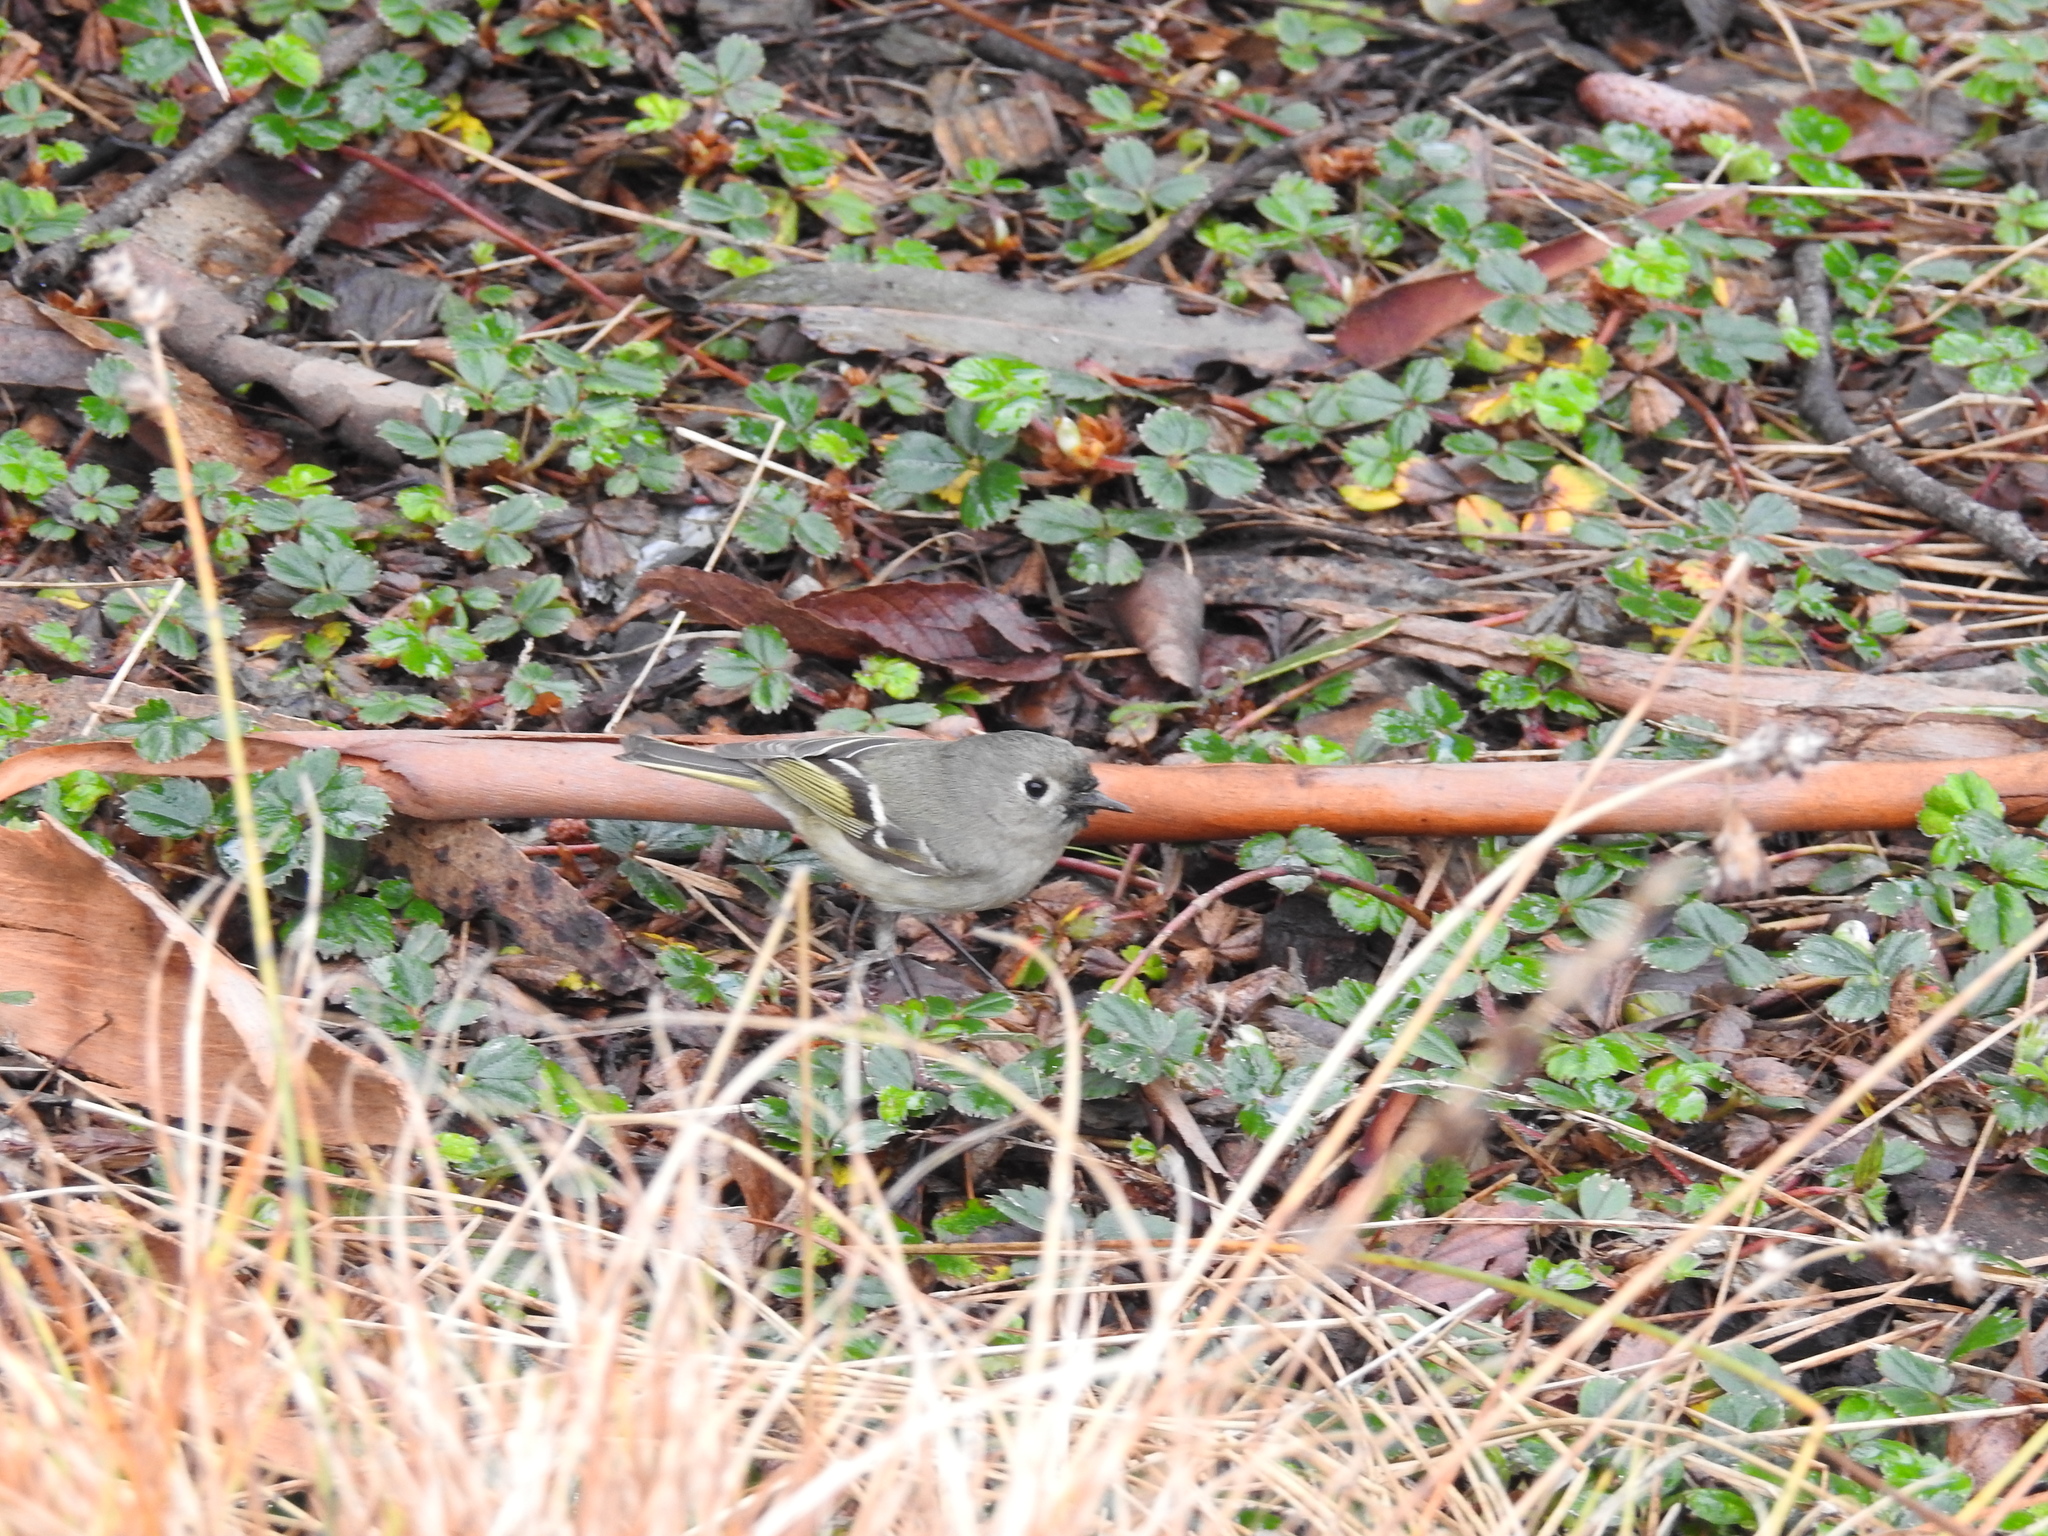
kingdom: Animalia
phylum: Chordata
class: Aves
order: Passeriformes
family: Regulidae
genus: Regulus
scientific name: Regulus calendula
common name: Ruby-crowned kinglet
